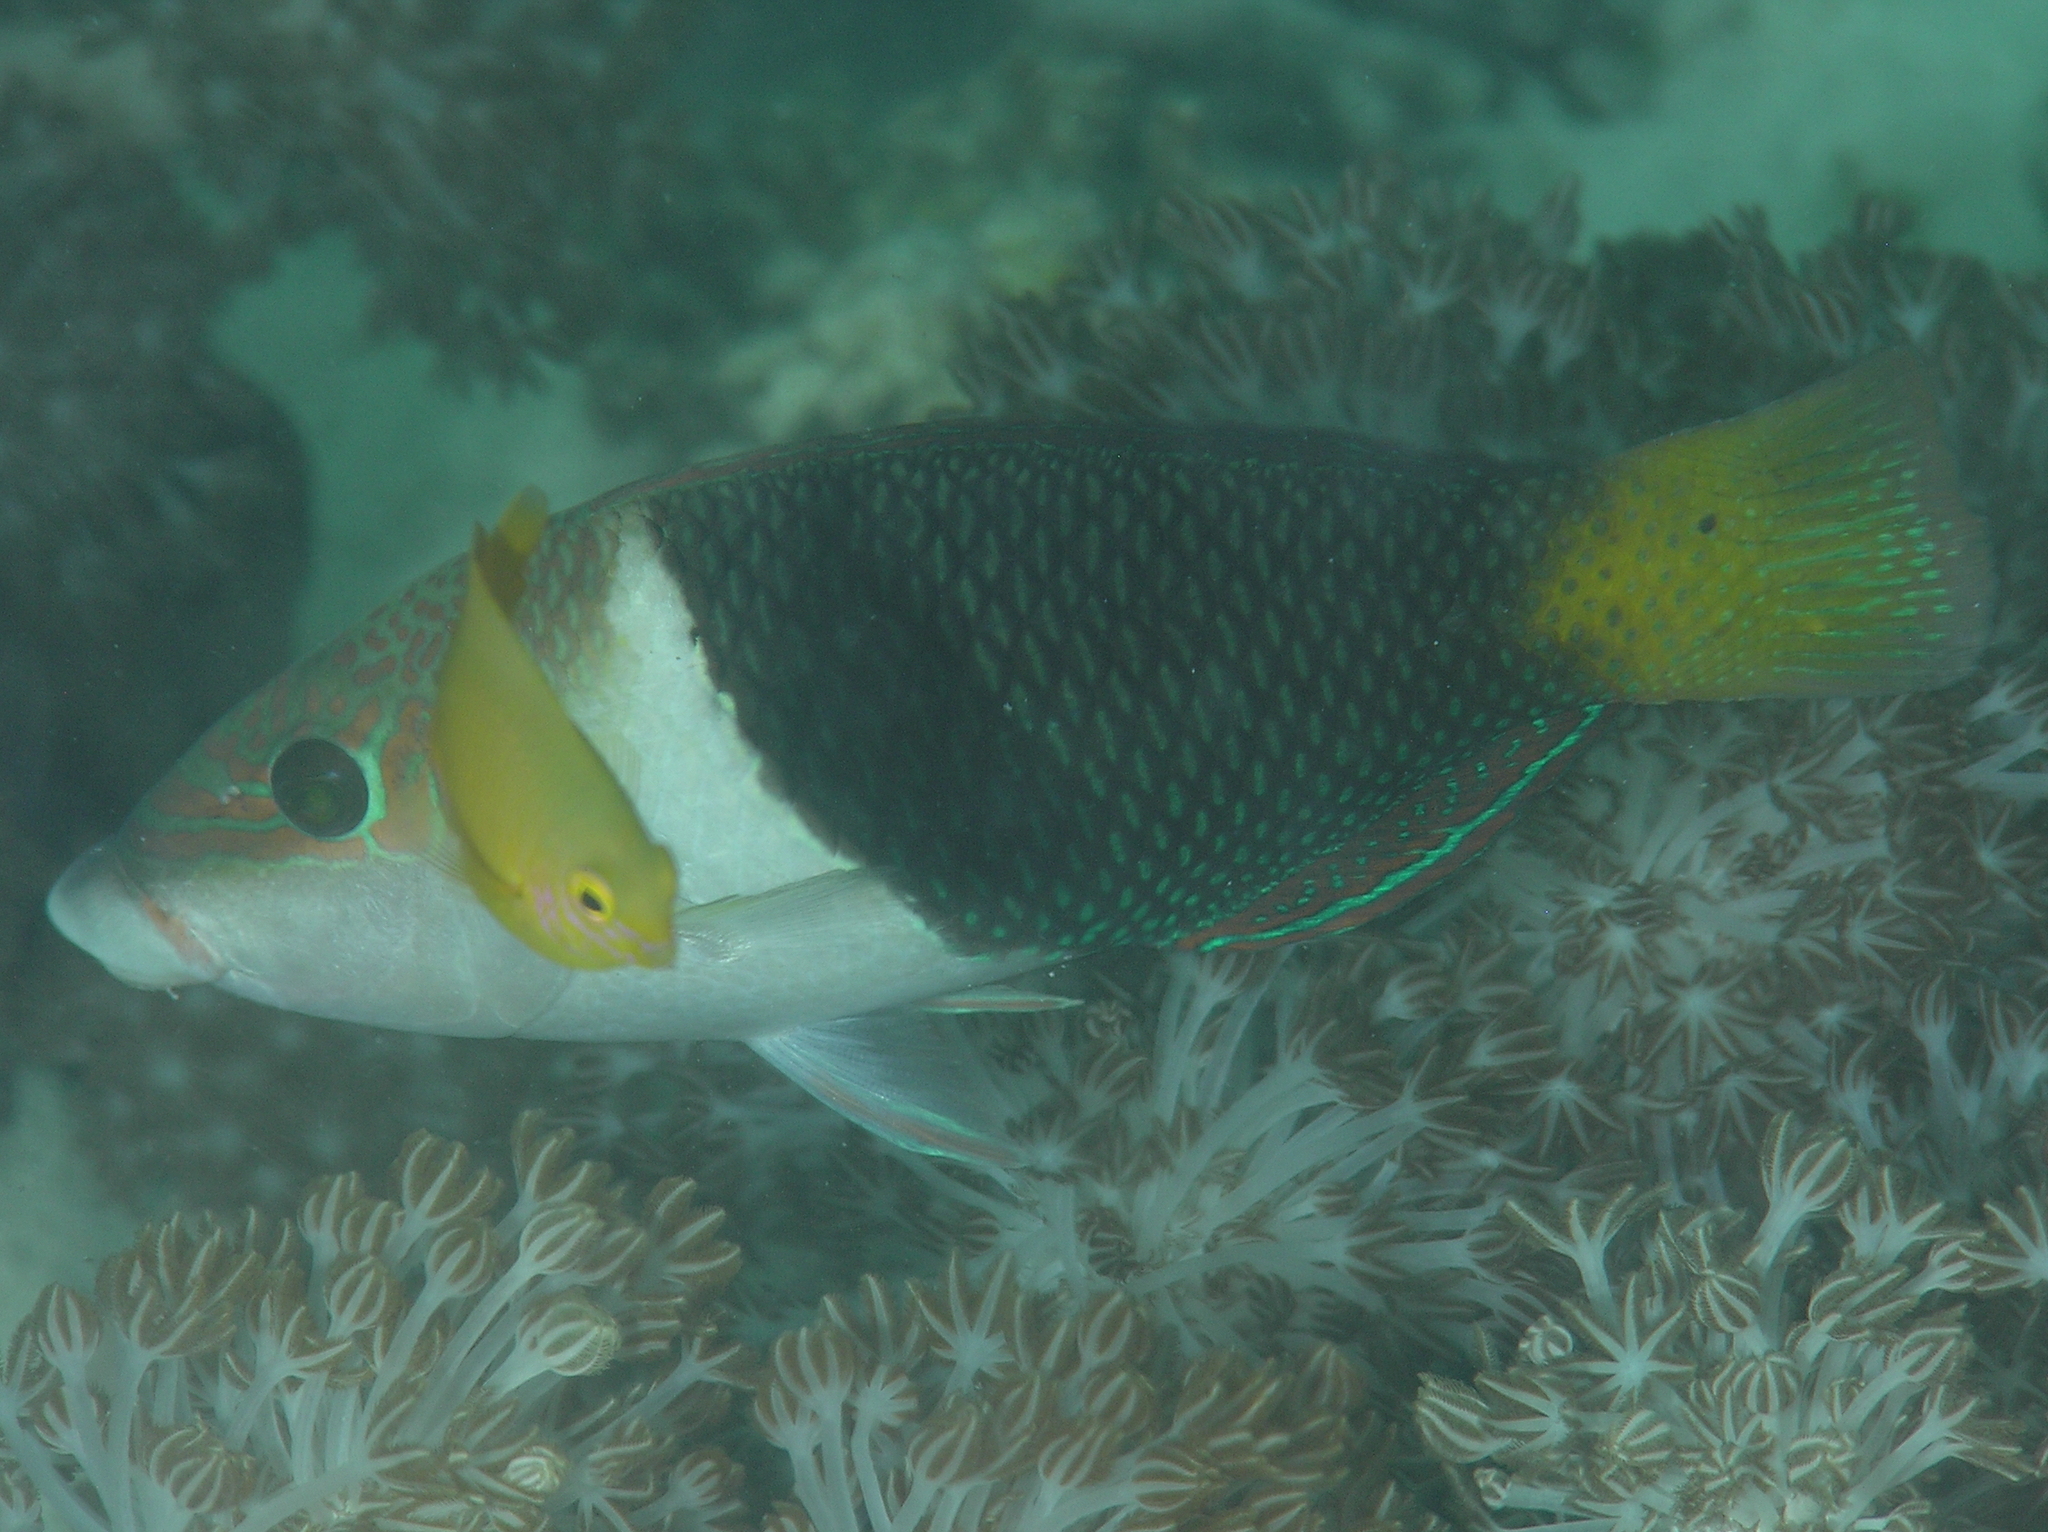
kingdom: Animalia
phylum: Chordata
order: Perciformes
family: Labridae
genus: Hemigymnus
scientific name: Hemigymnus melapterus
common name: Blackeye thicklip
